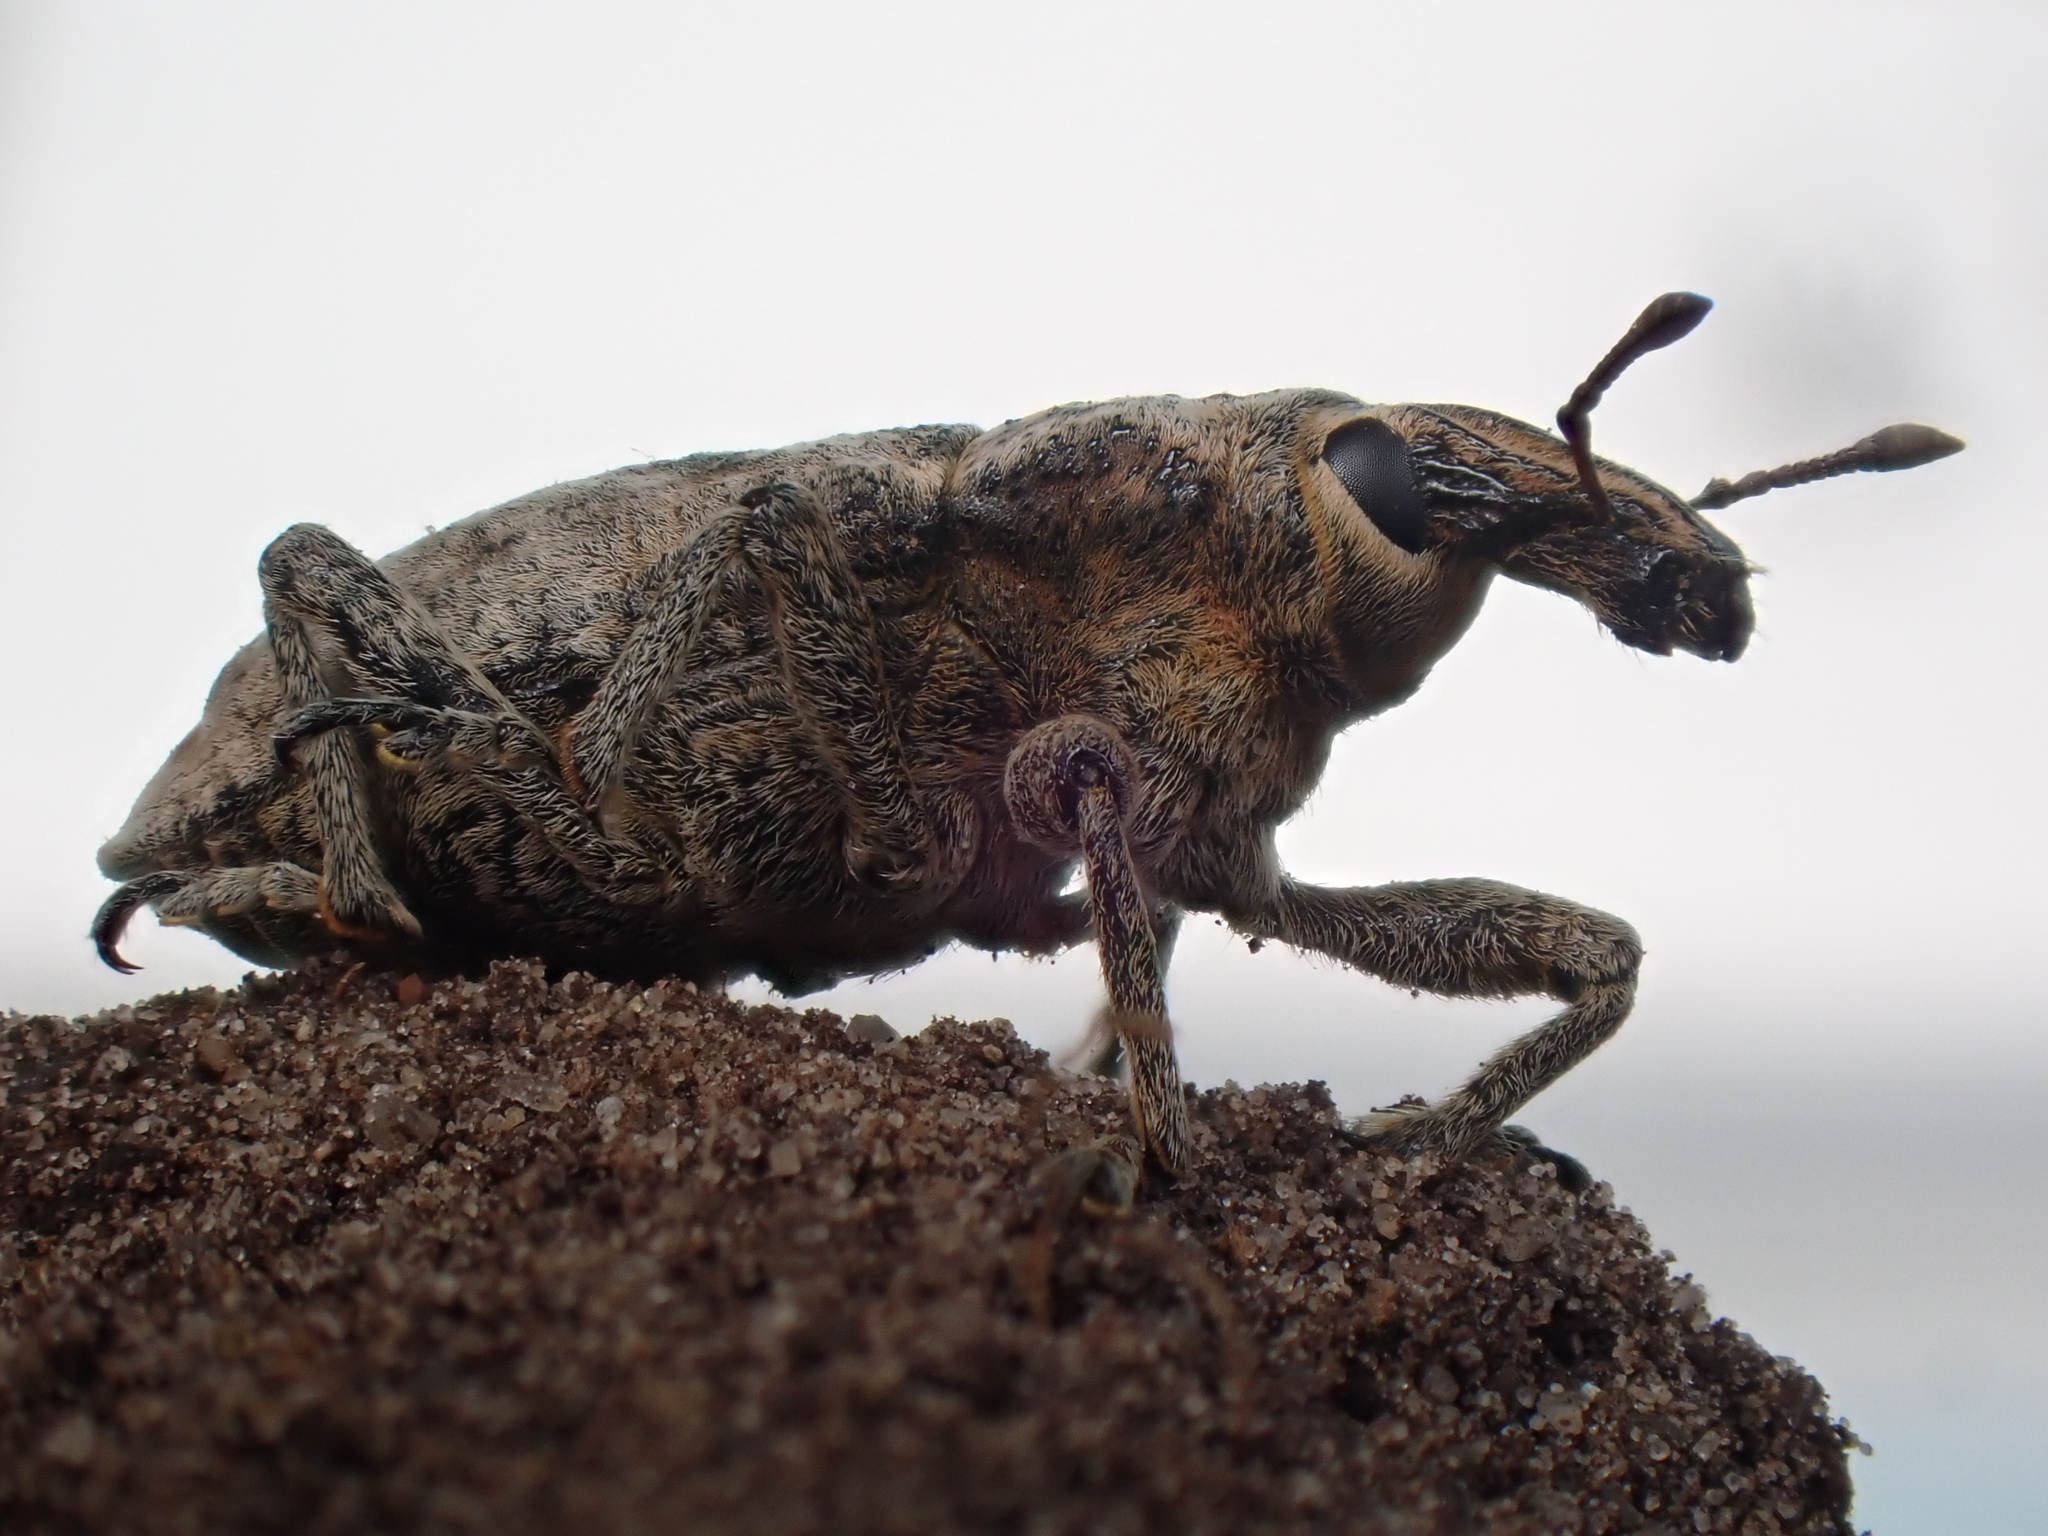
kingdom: Animalia
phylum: Arthropoda
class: Insecta
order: Coleoptera
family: Curculionidae
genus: Cleonis
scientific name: Cleonis pigra
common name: Large thistle weevil
